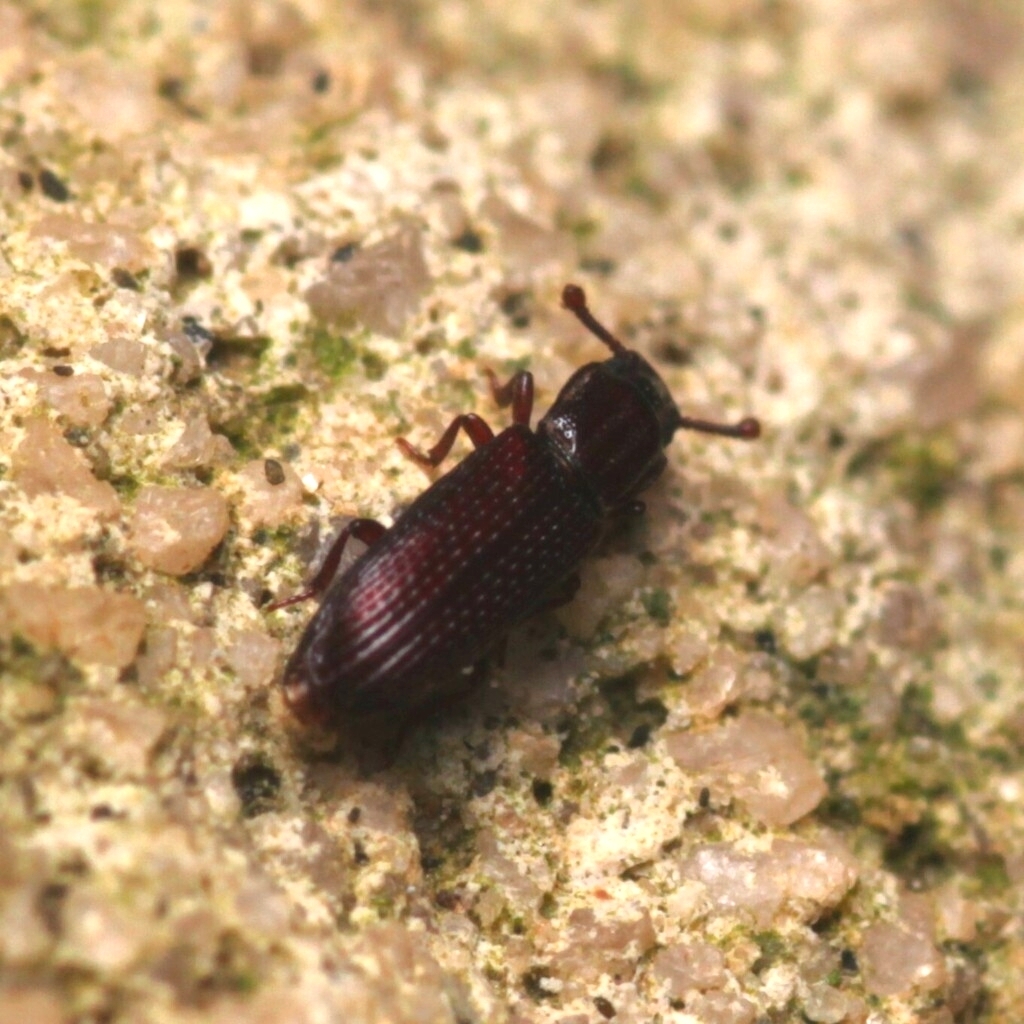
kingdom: Animalia
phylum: Arthropoda
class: Insecta
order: Coleoptera
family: Zopheridae
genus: Pycnomerus
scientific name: Pycnomerus sulcicollis
